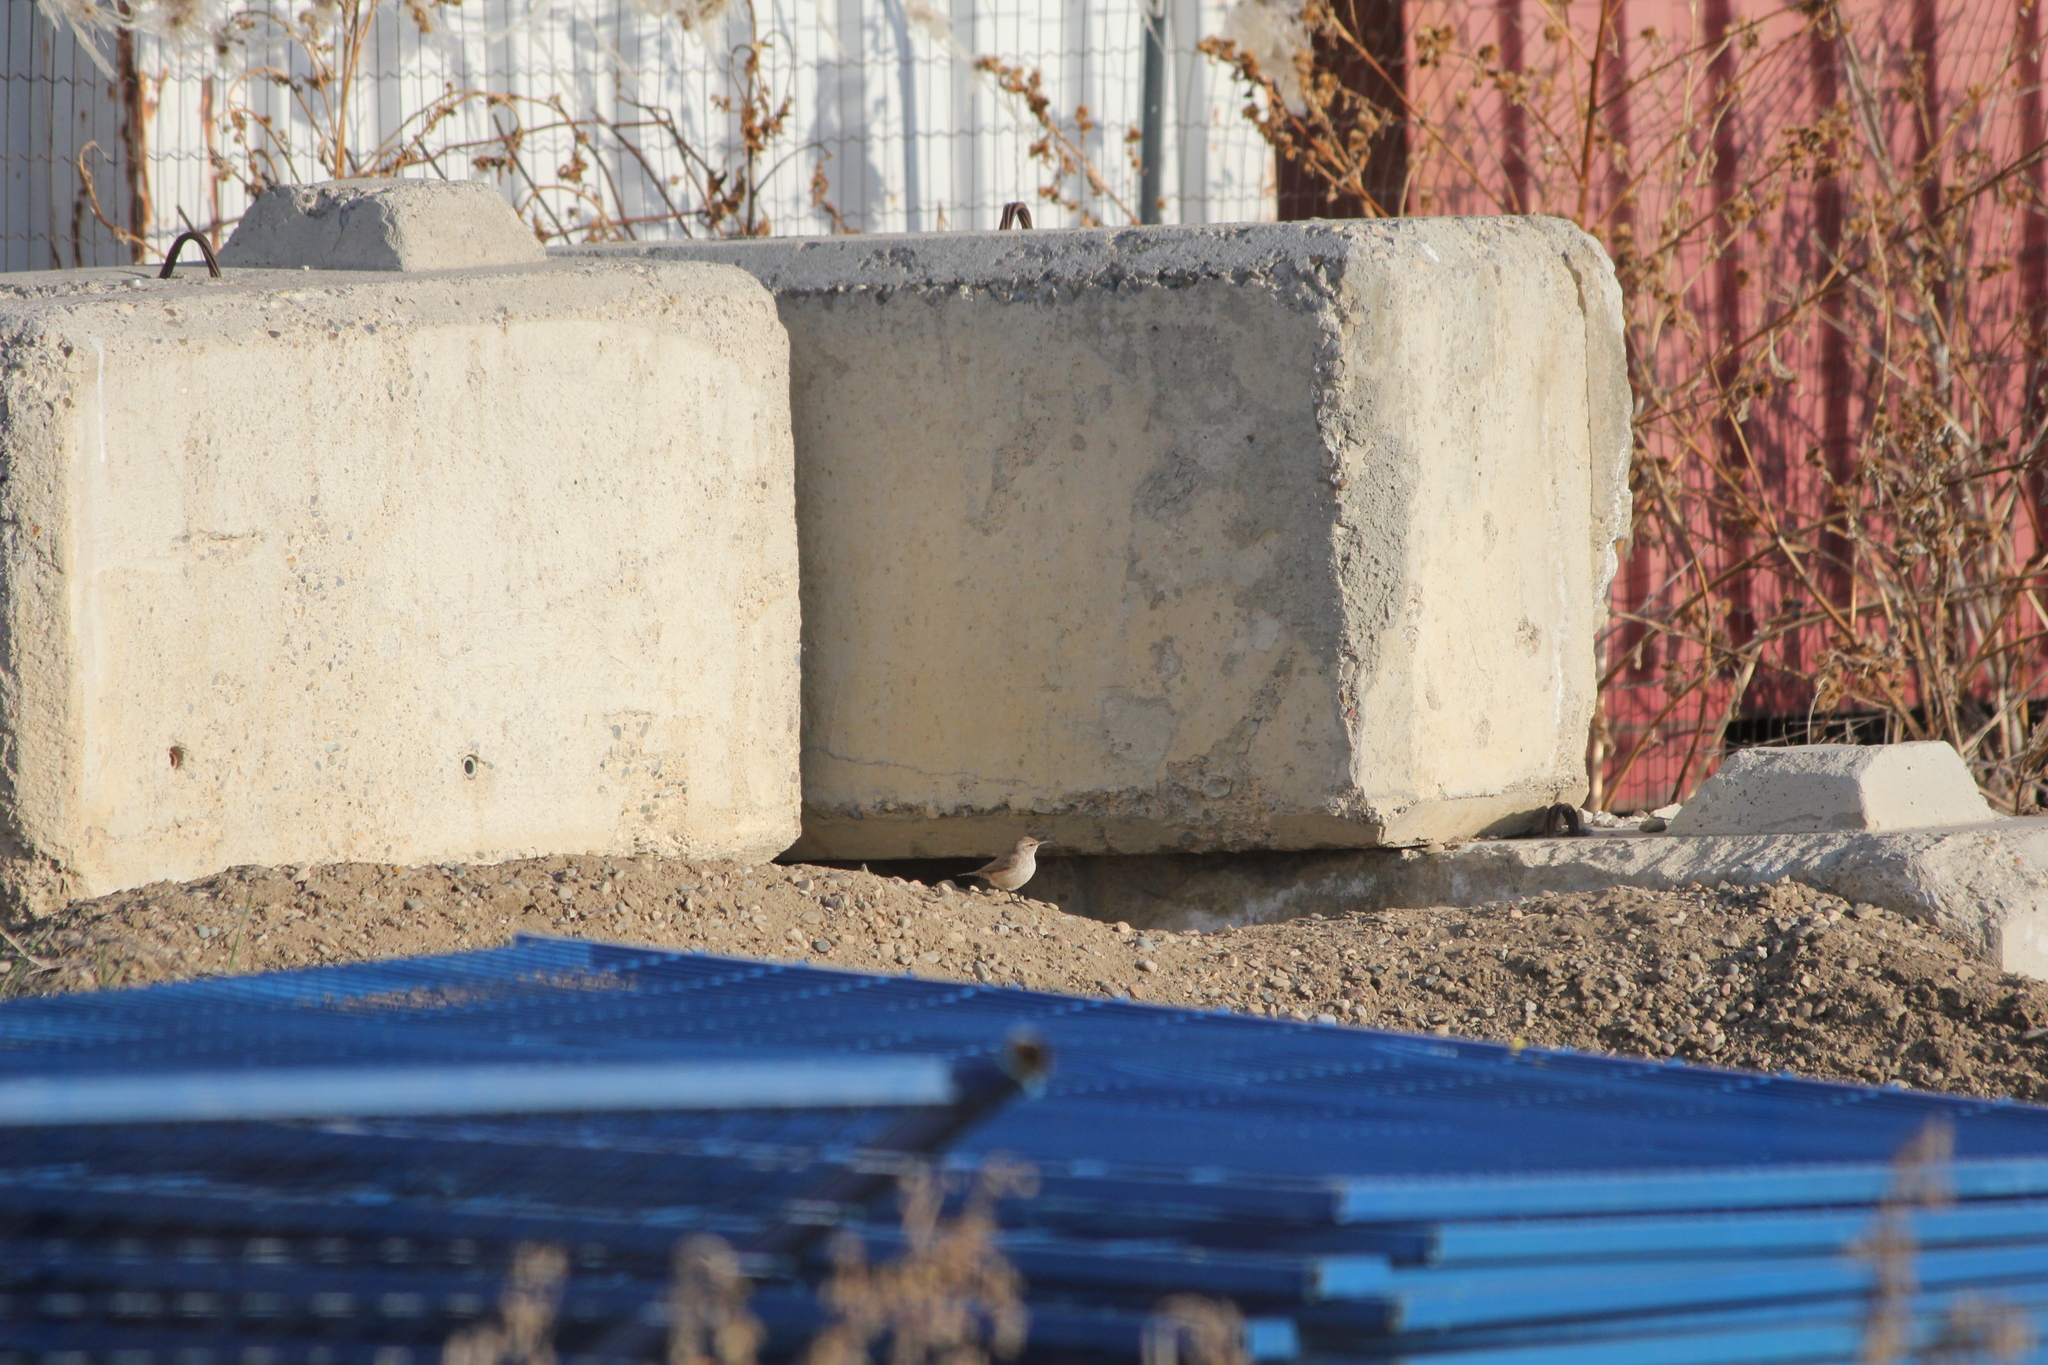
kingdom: Animalia
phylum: Chordata
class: Aves
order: Passeriformes
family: Troglodytidae
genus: Troglodytes
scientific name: Troglodytes aedon
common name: House wren
